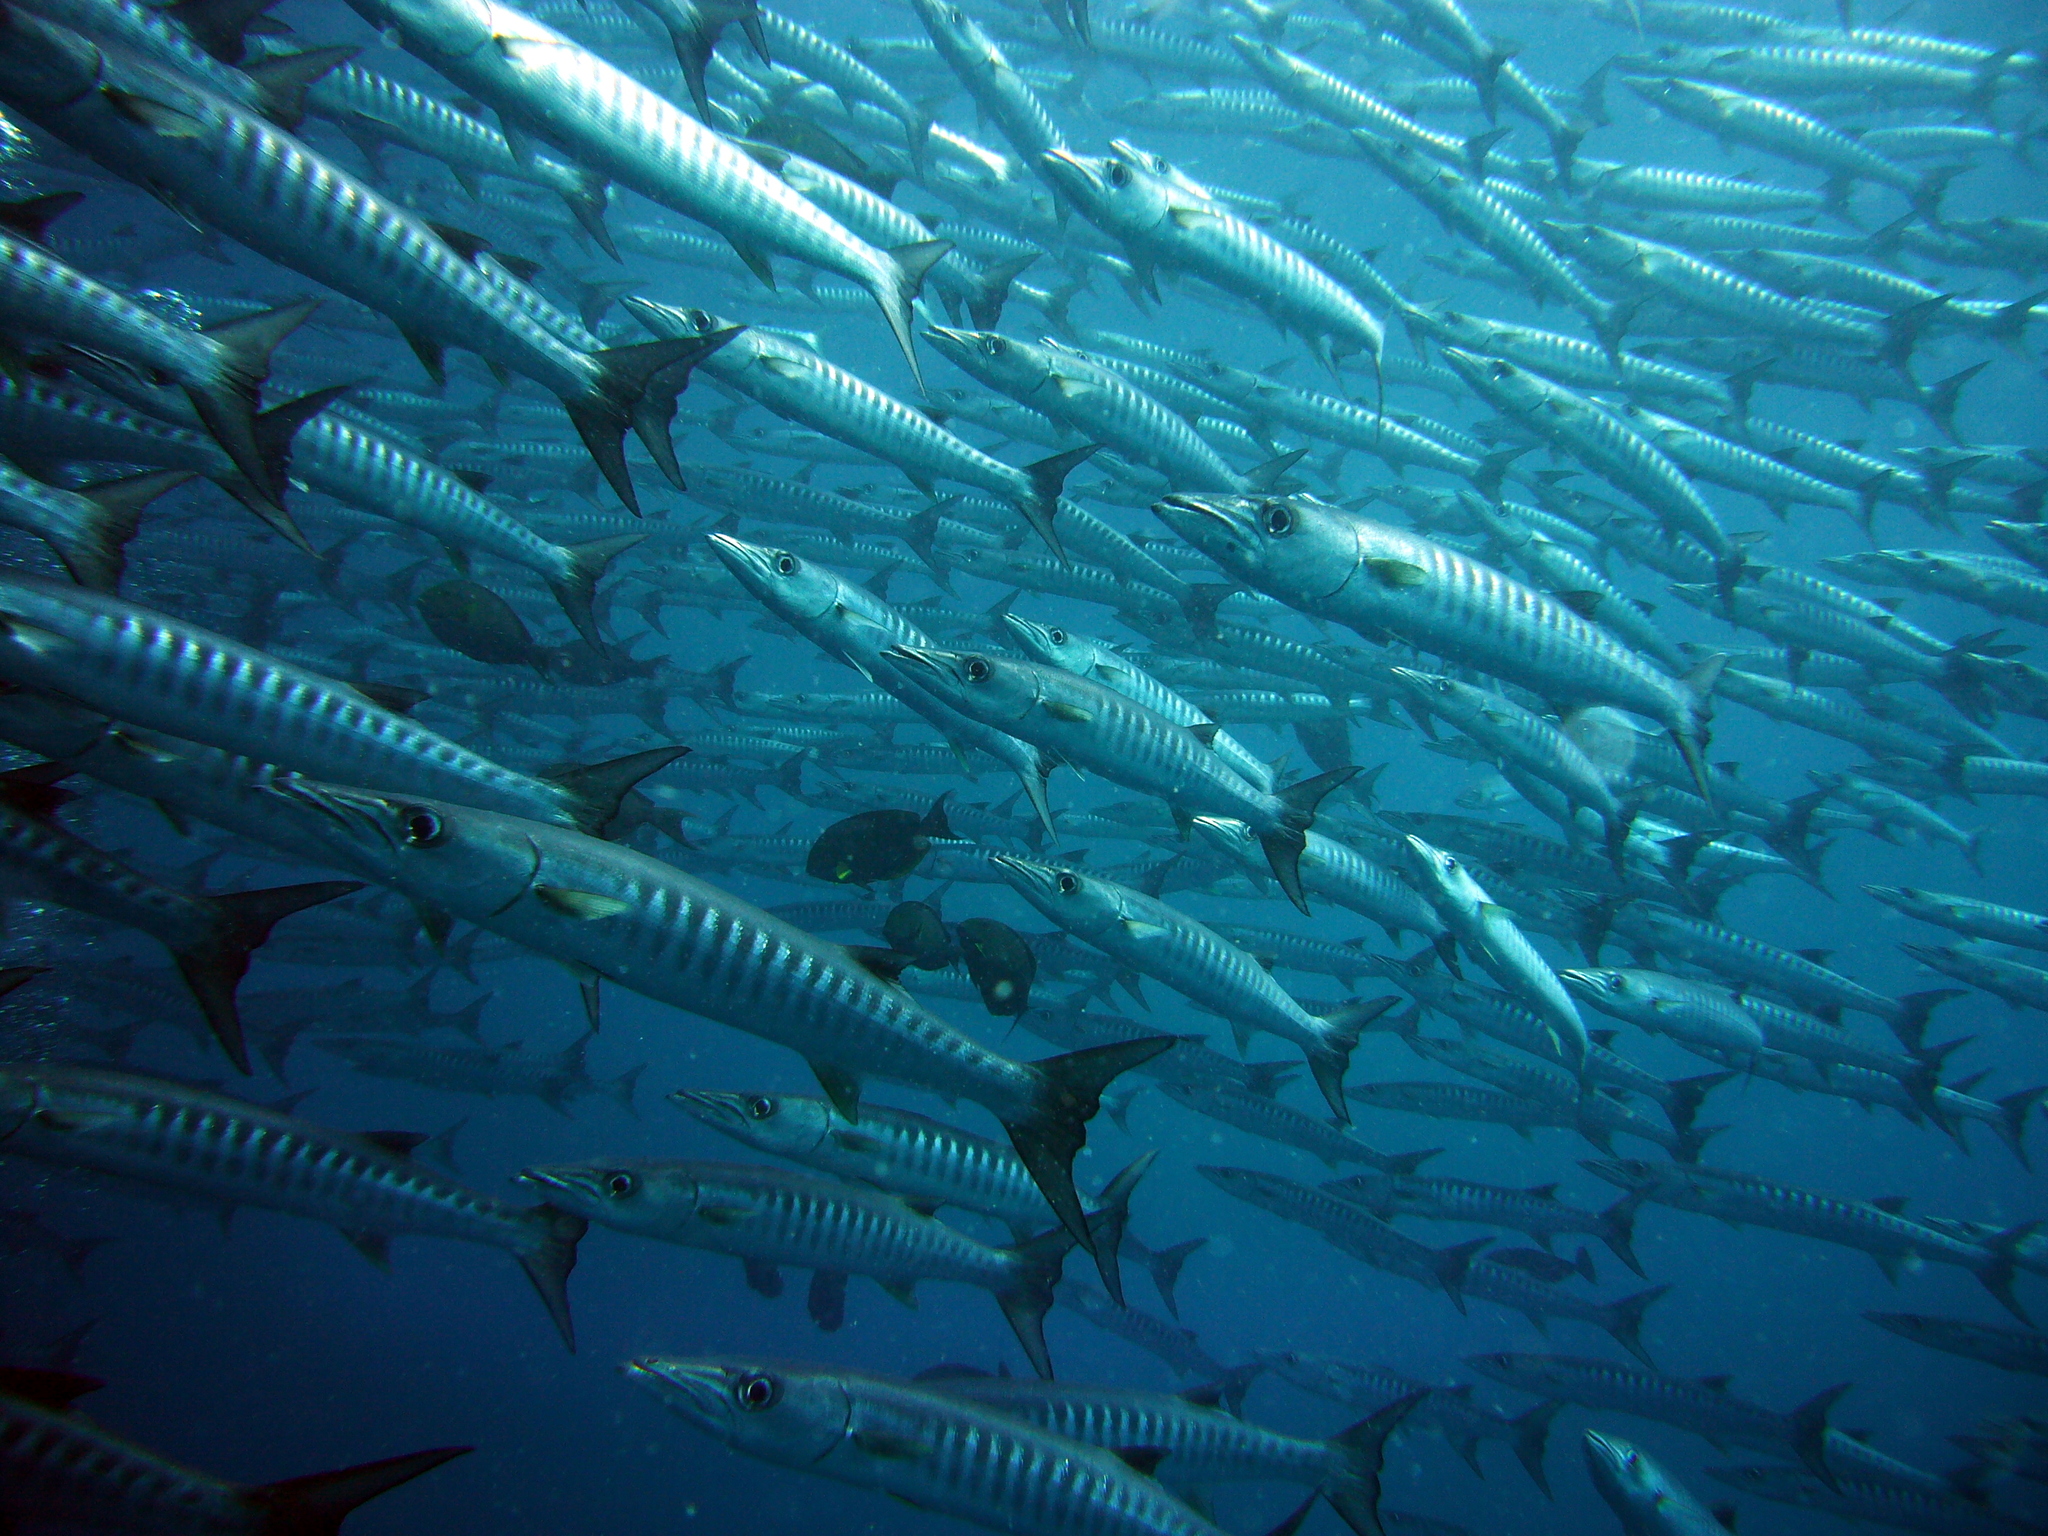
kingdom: Animalia
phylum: Chordata
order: Perciformes
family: Sphyraenidae
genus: Sphyraena
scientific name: Sphyraena qenie
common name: Blackfin barracuda
